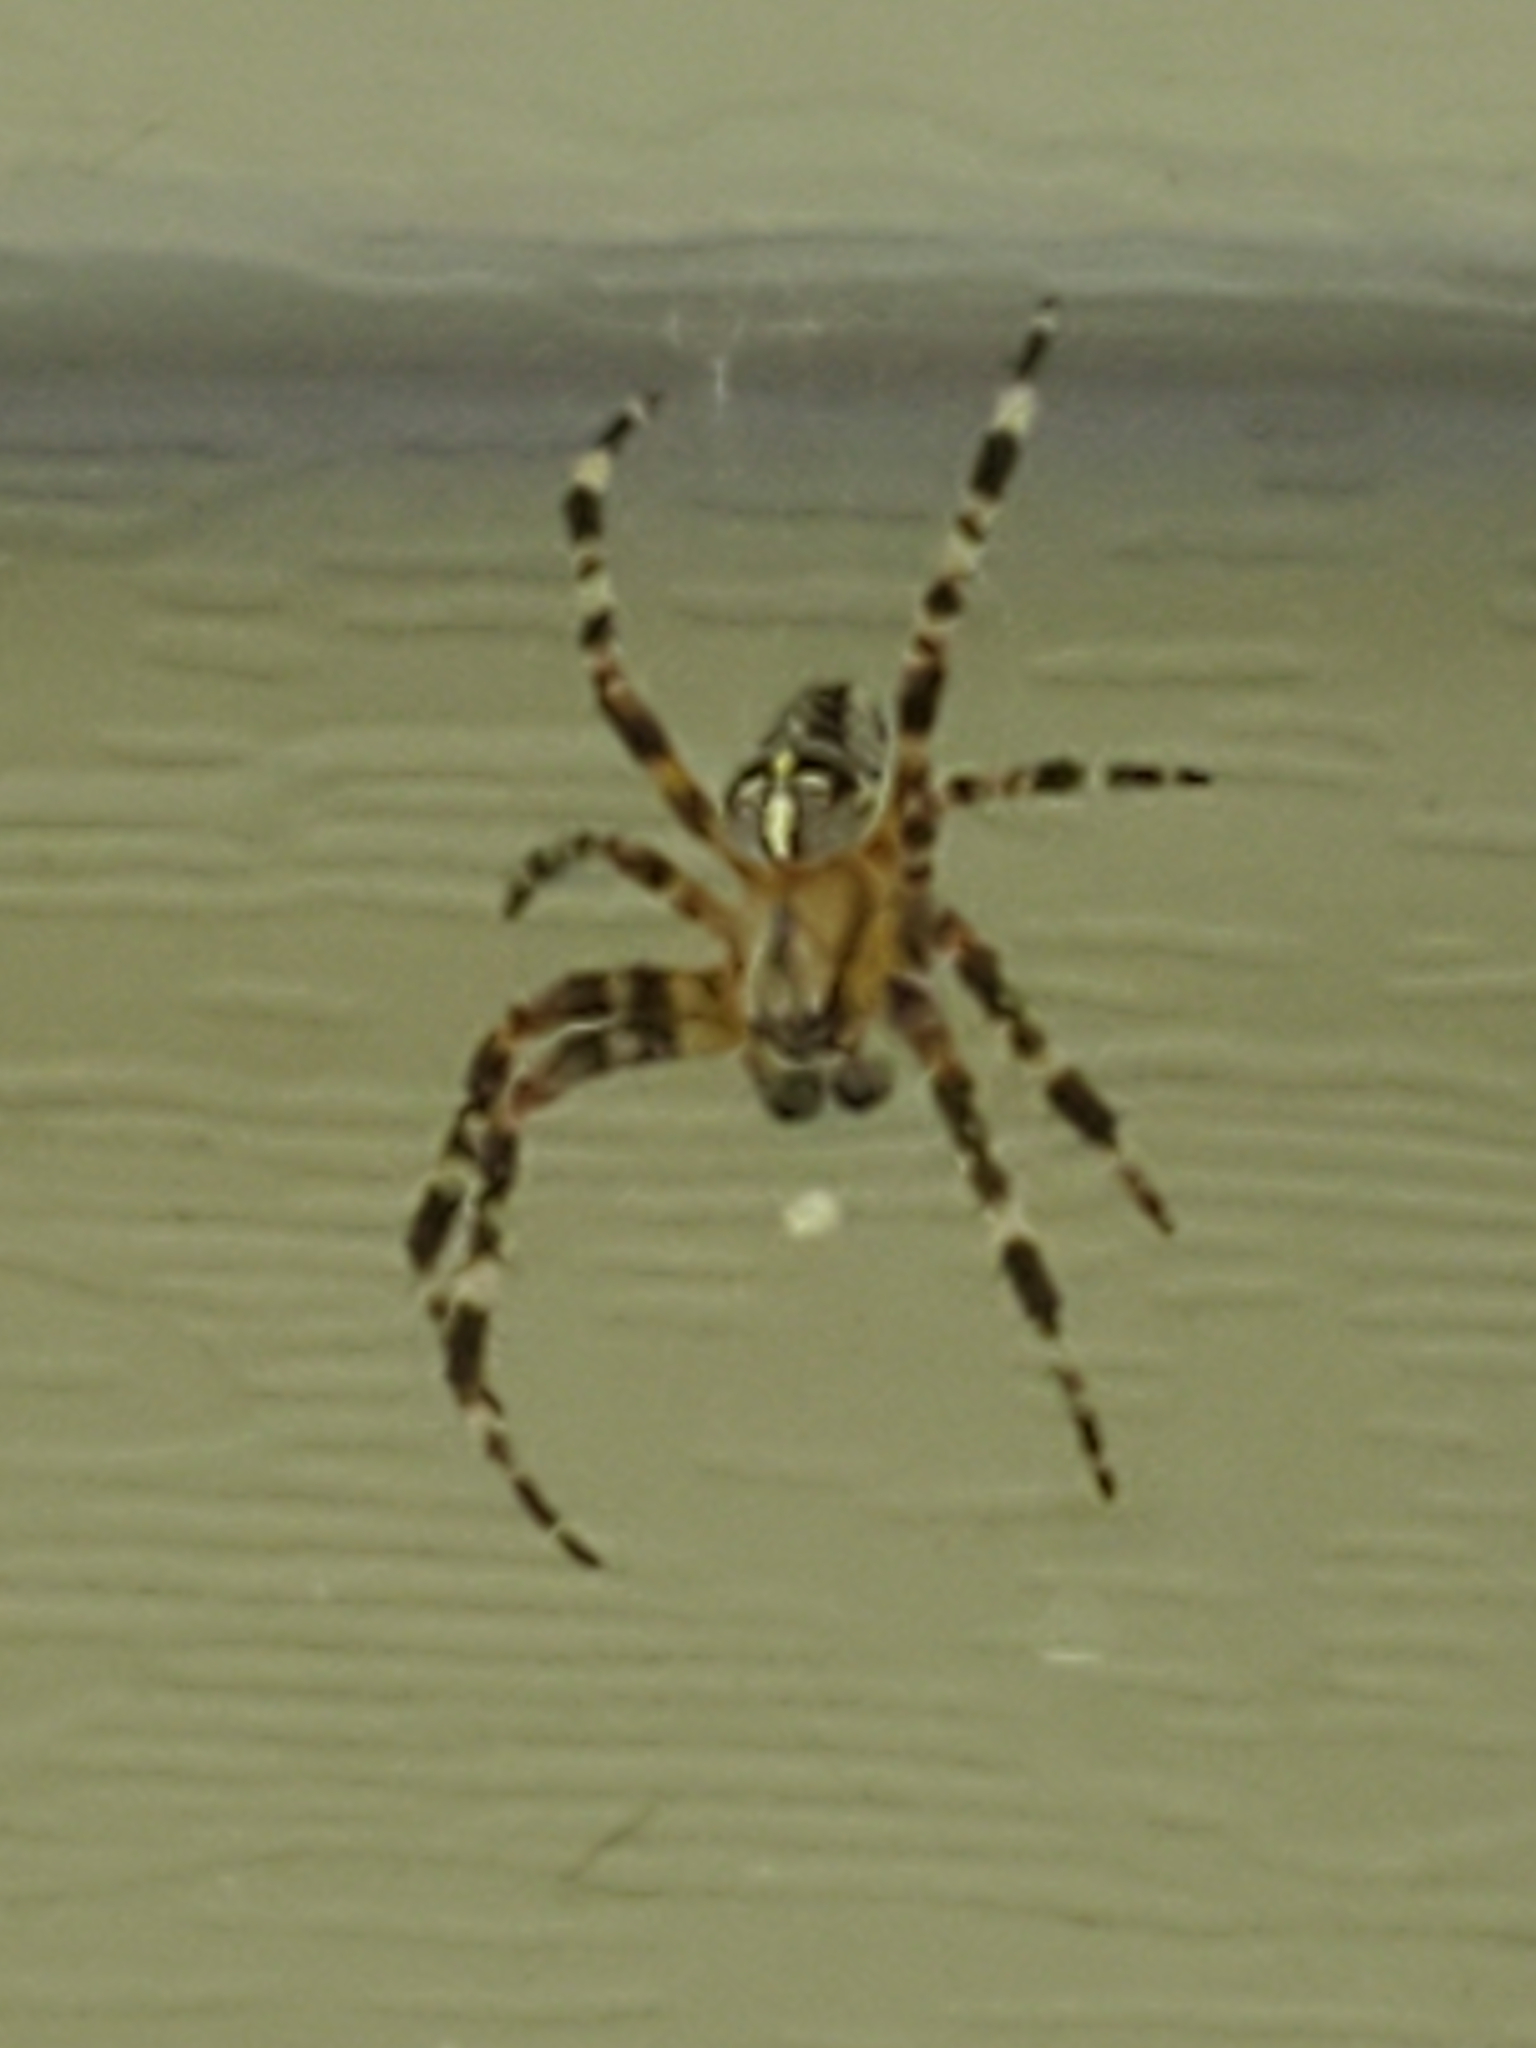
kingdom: Animalia
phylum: Arthropoda
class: Arachnida
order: Araneae
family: Araneidae
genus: Araneus
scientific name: Araneus diadematus
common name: Cross orbweaver
